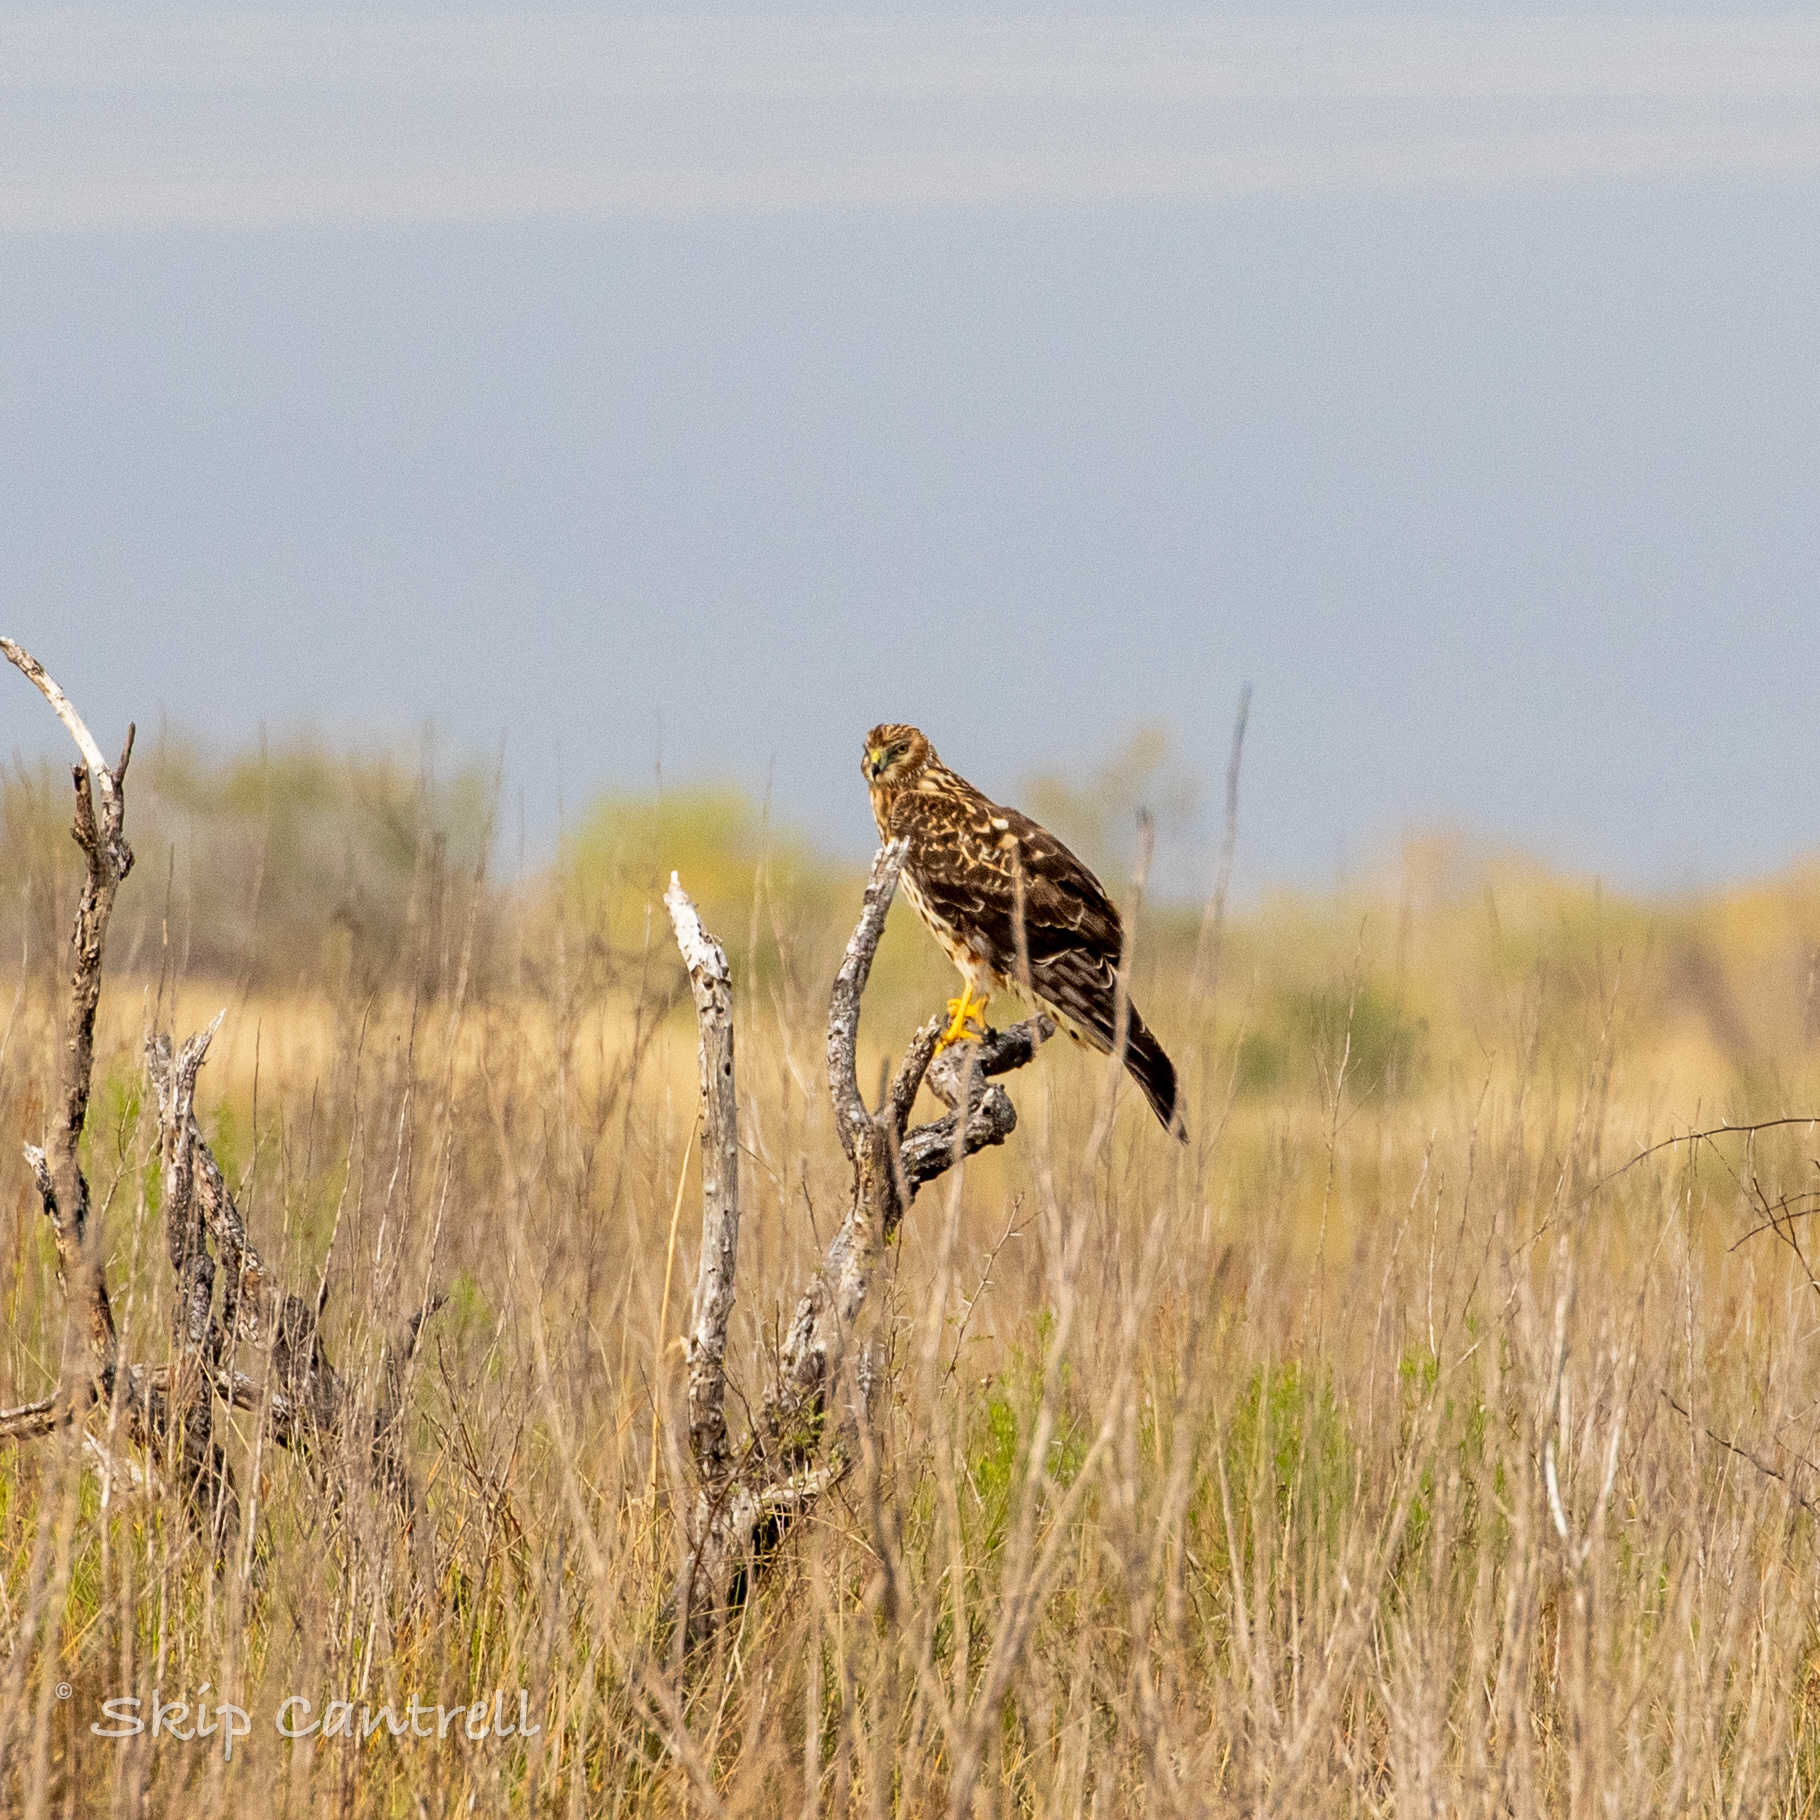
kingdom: Animalia
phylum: Chordata
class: Aves
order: Accipitriformes
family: Accipitridae
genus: Circus
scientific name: Circus cyaneus
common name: Hen harrier
